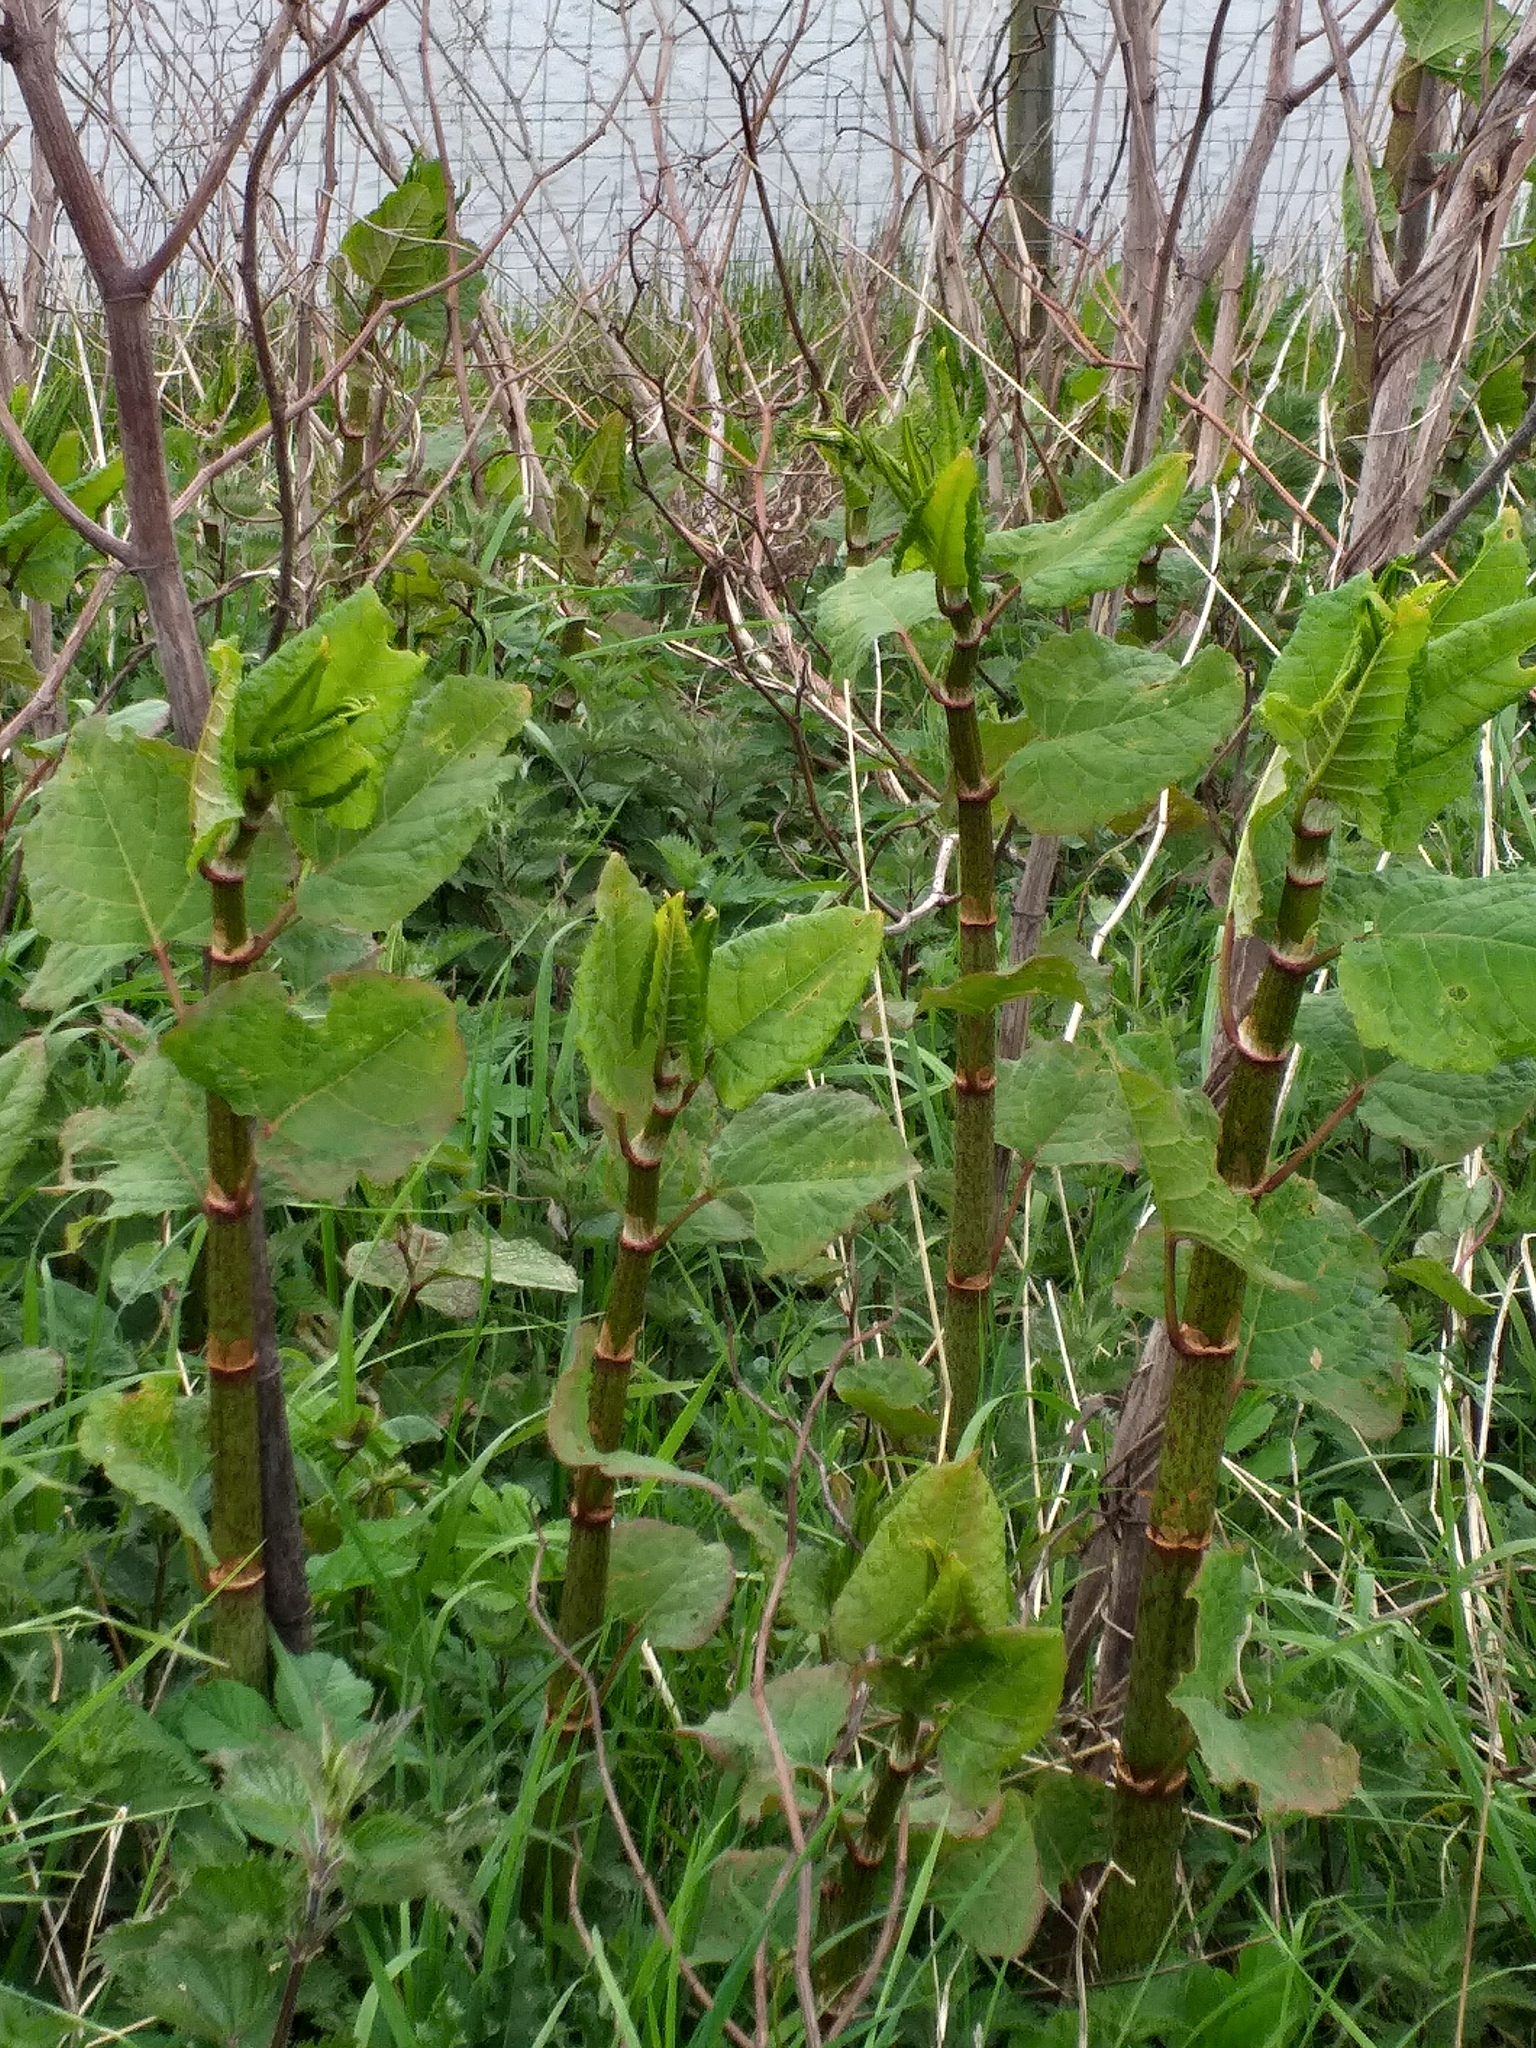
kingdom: Plantae
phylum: Tracheophyta
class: Magnoliopsida
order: Caryophyllales
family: Polygonaceae
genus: Reynoutria
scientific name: Reynoutria bohemica
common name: Bohemian knotweed
